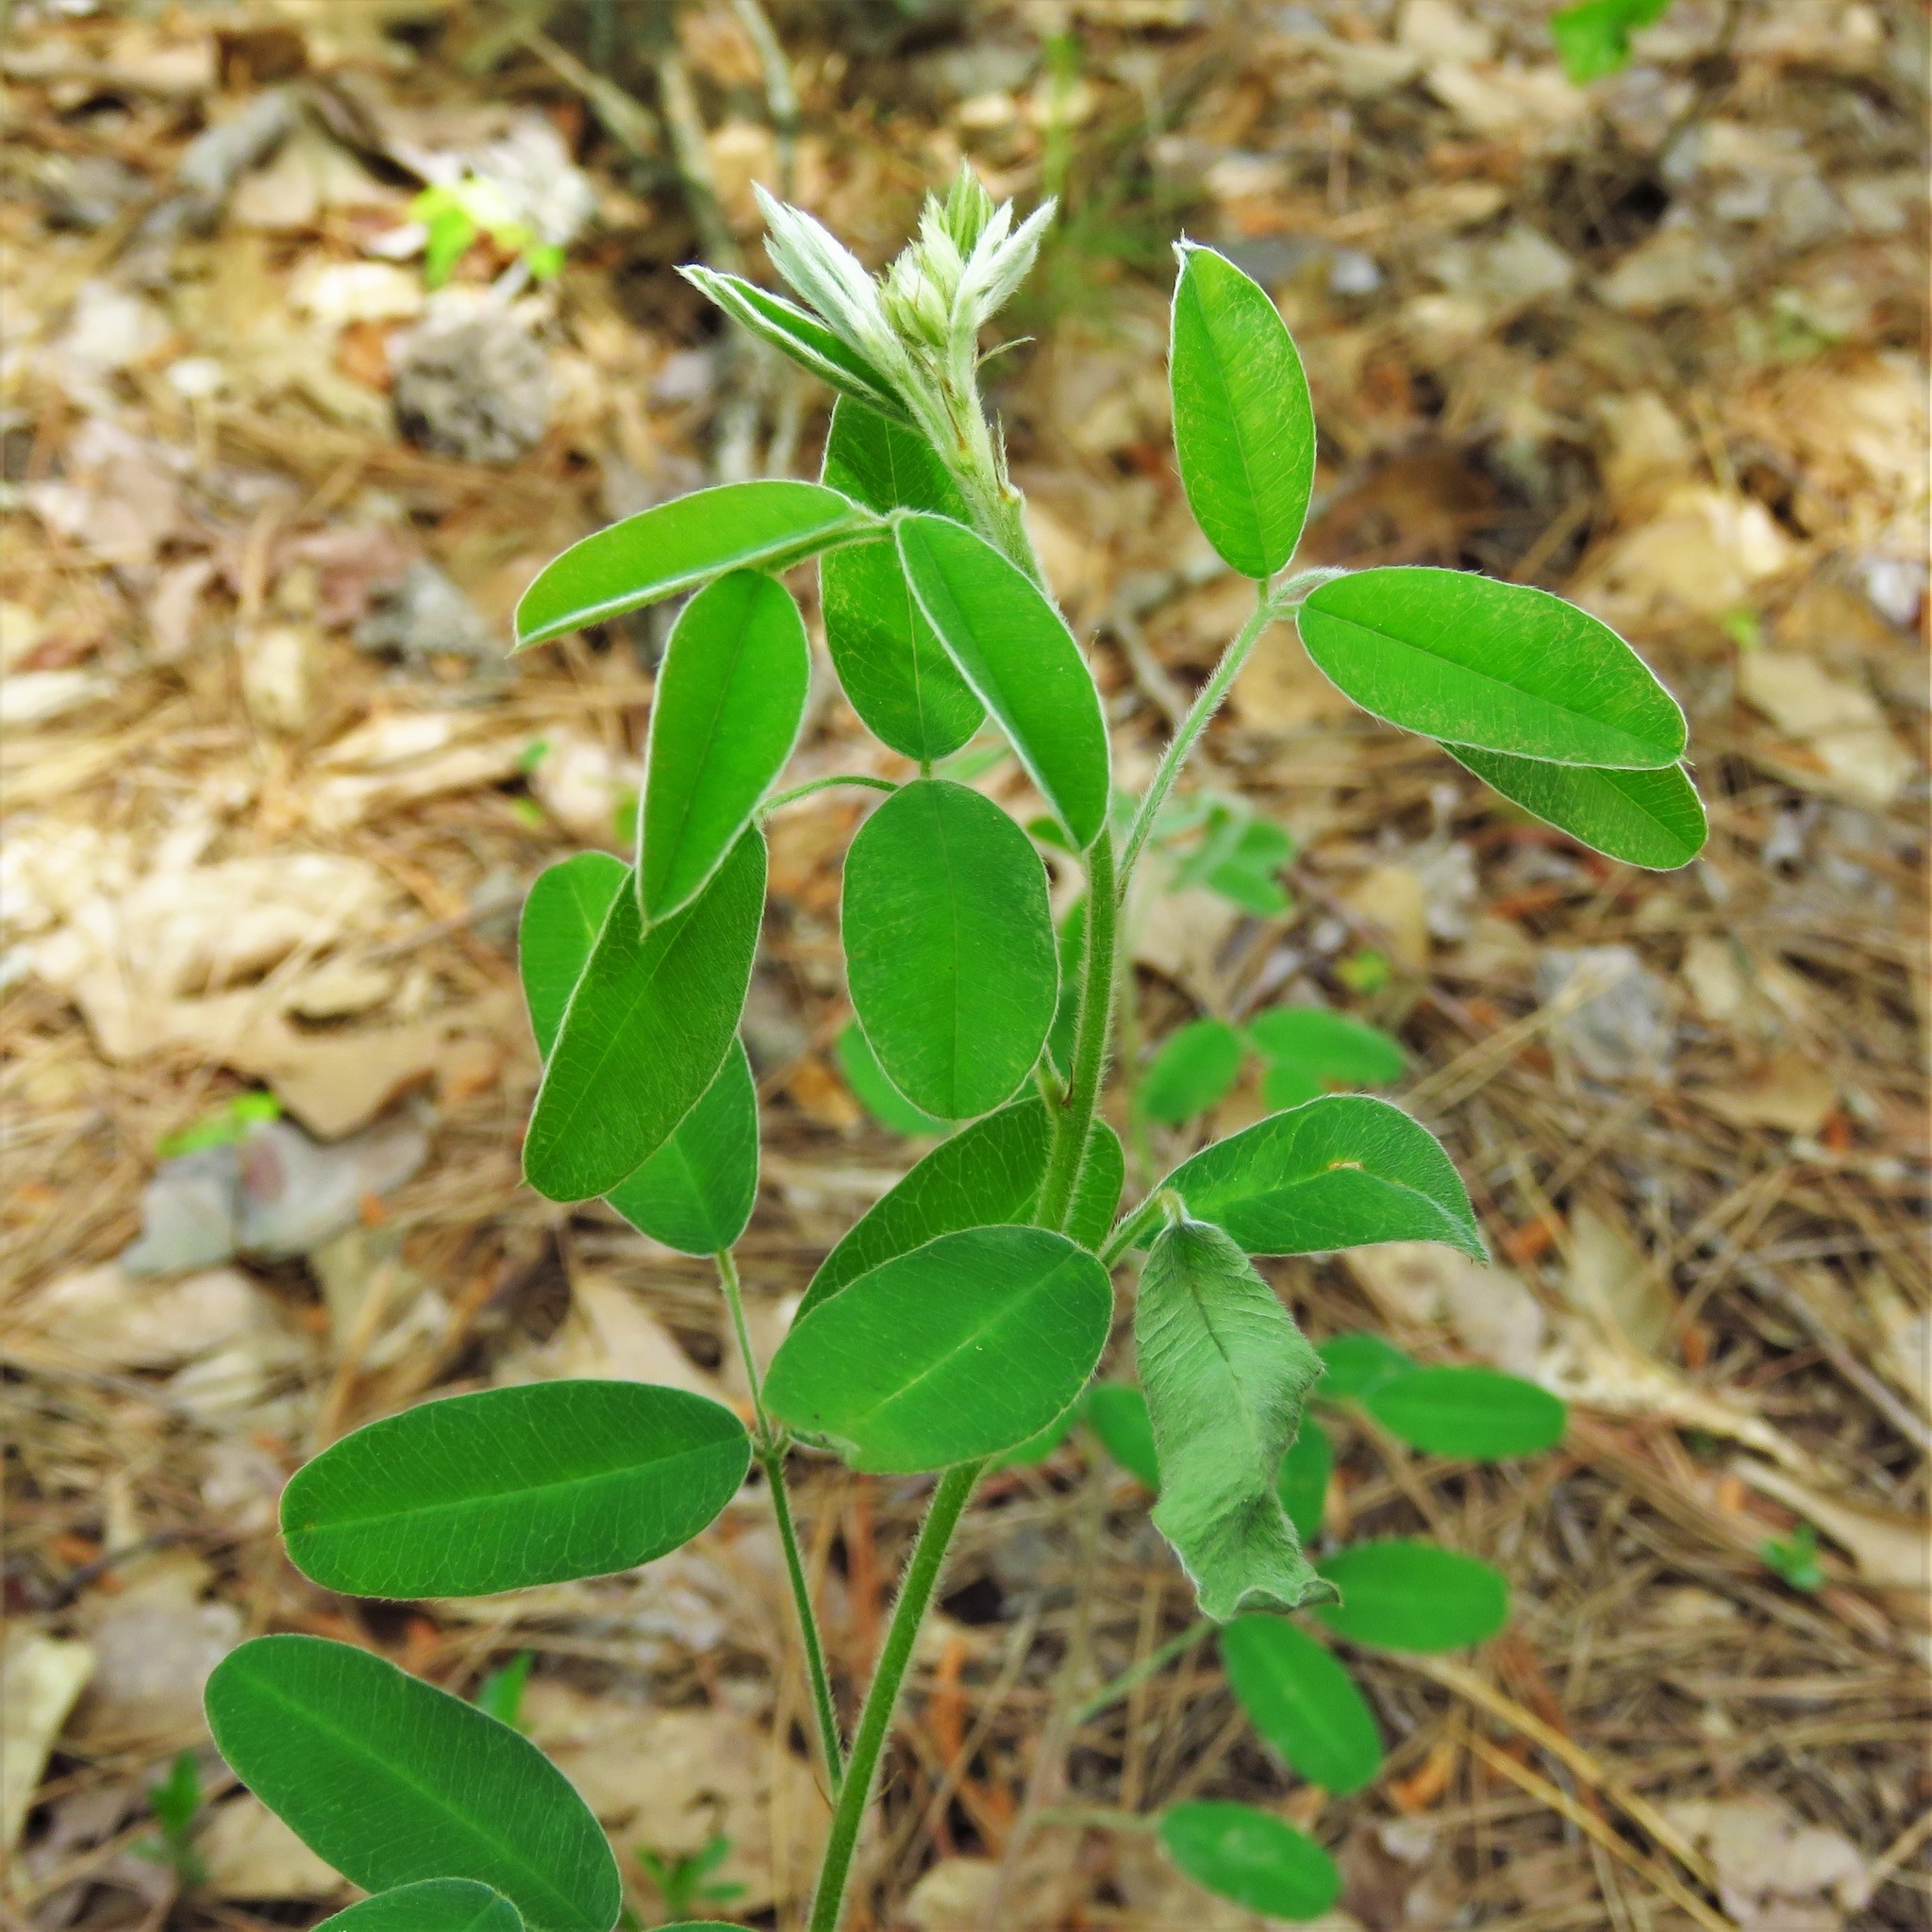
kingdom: Plantae
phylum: Tracheophyta
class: Magnoliopsida
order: Fabales
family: Fabaceae
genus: Lespedeza
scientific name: Lespedeza hirta
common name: Hairy lespedeza
